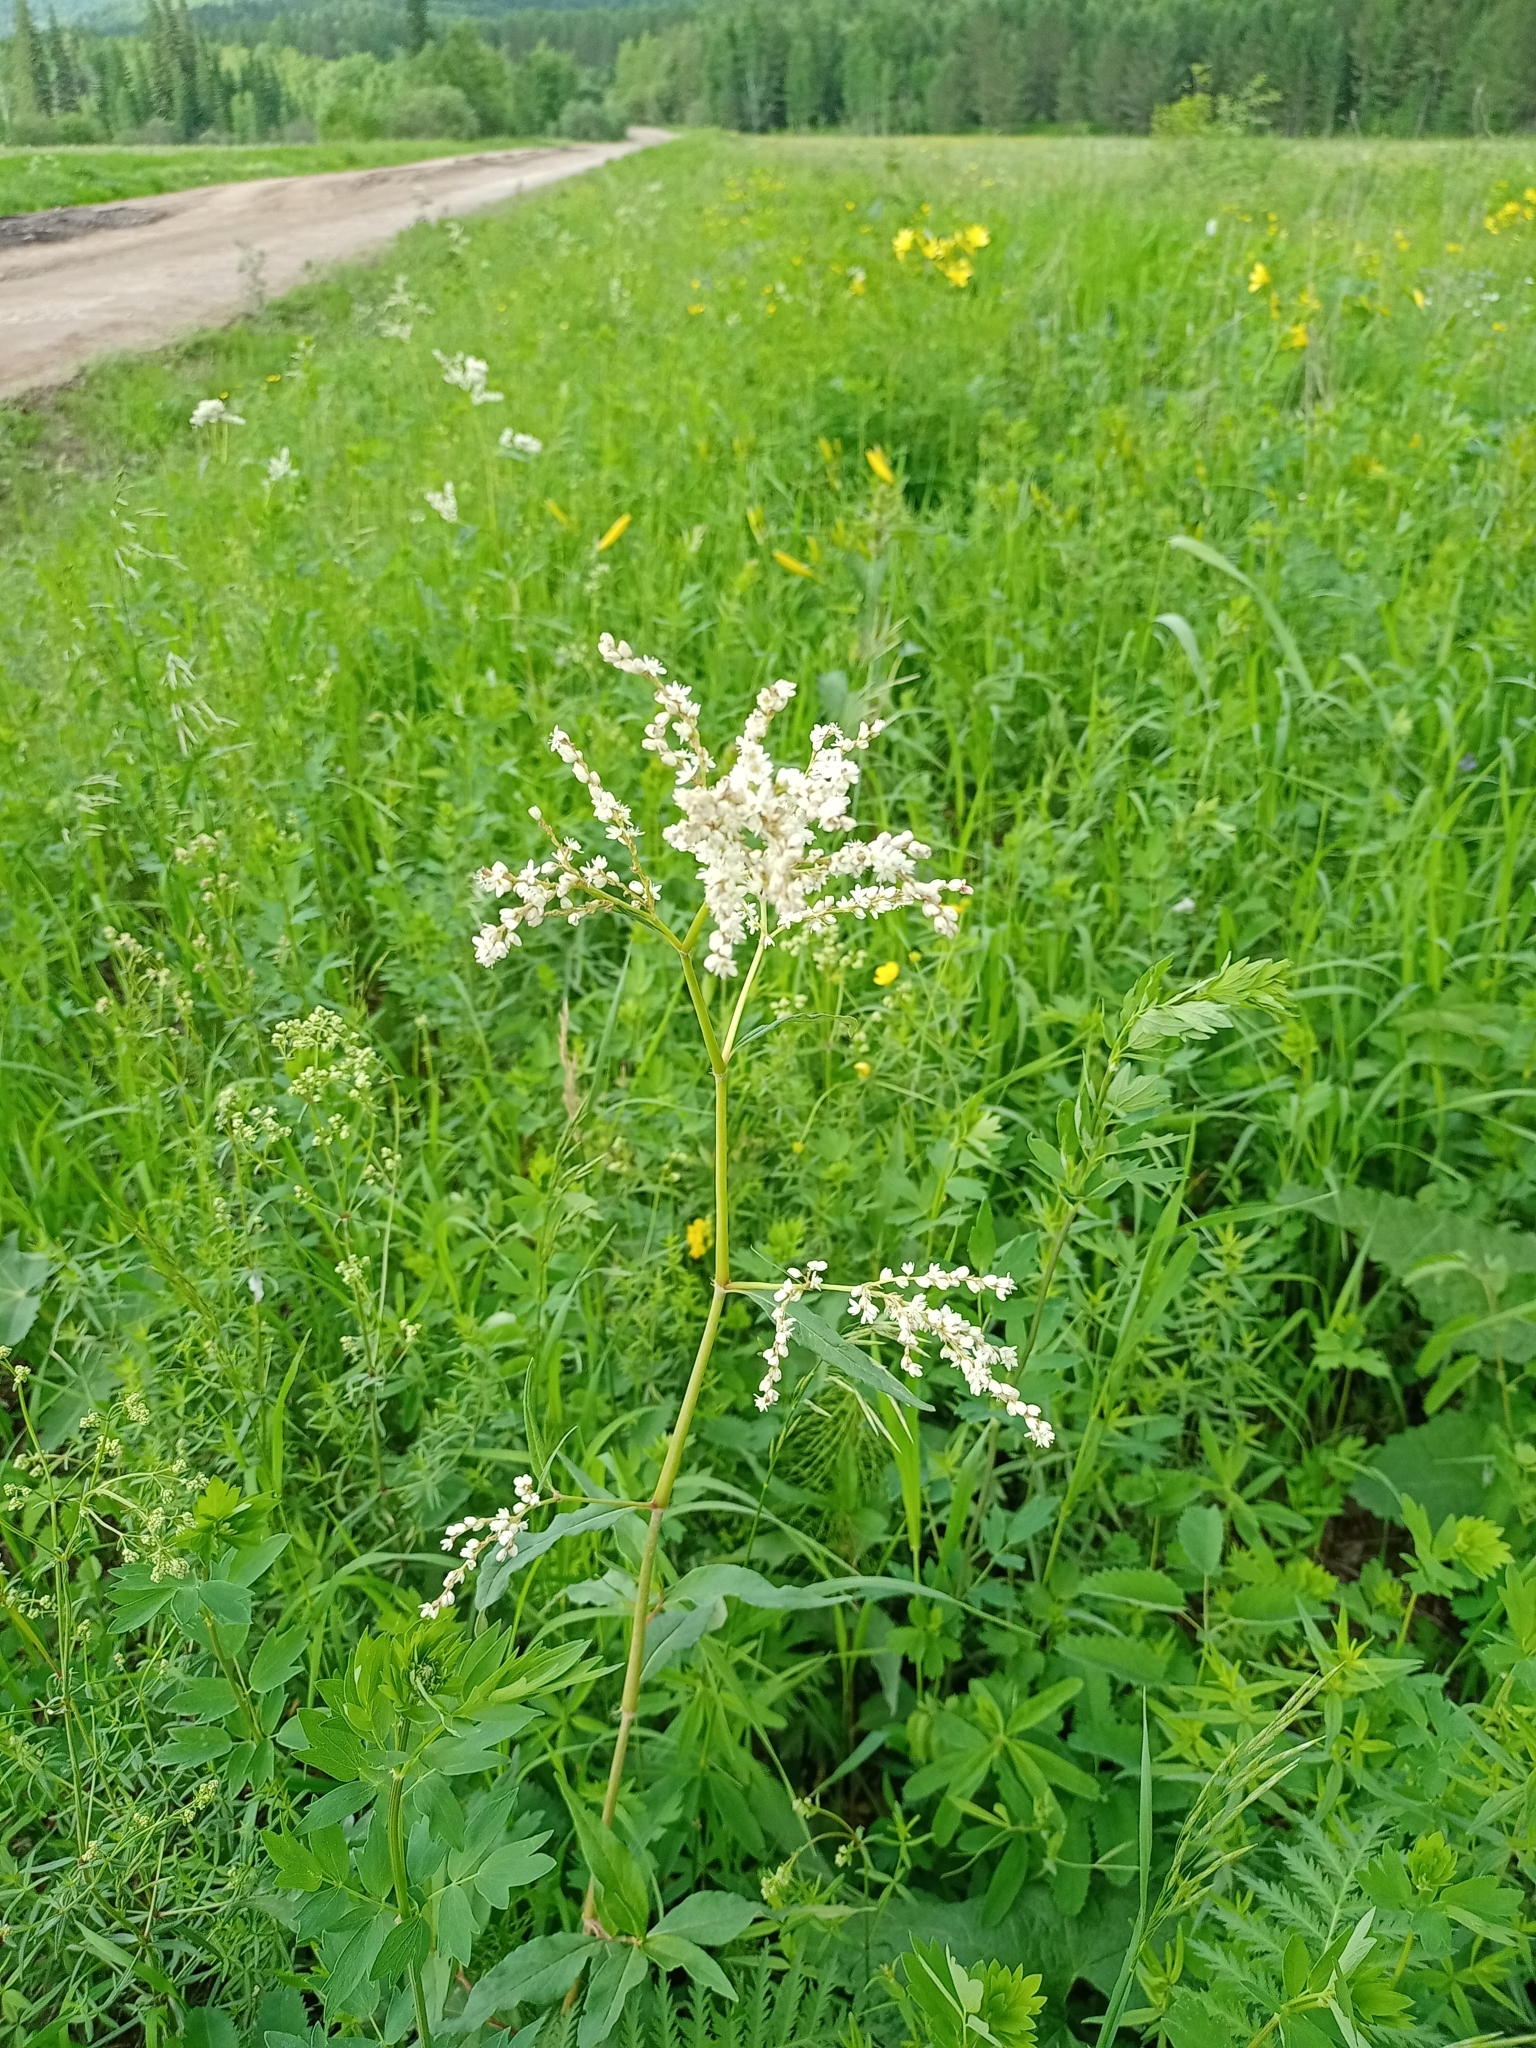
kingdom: Plantae
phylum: Tracheophyta
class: Magnoliopsida
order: Caryophyllales
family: Polygonaceae
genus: Koenigia
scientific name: Koenigia alpina
